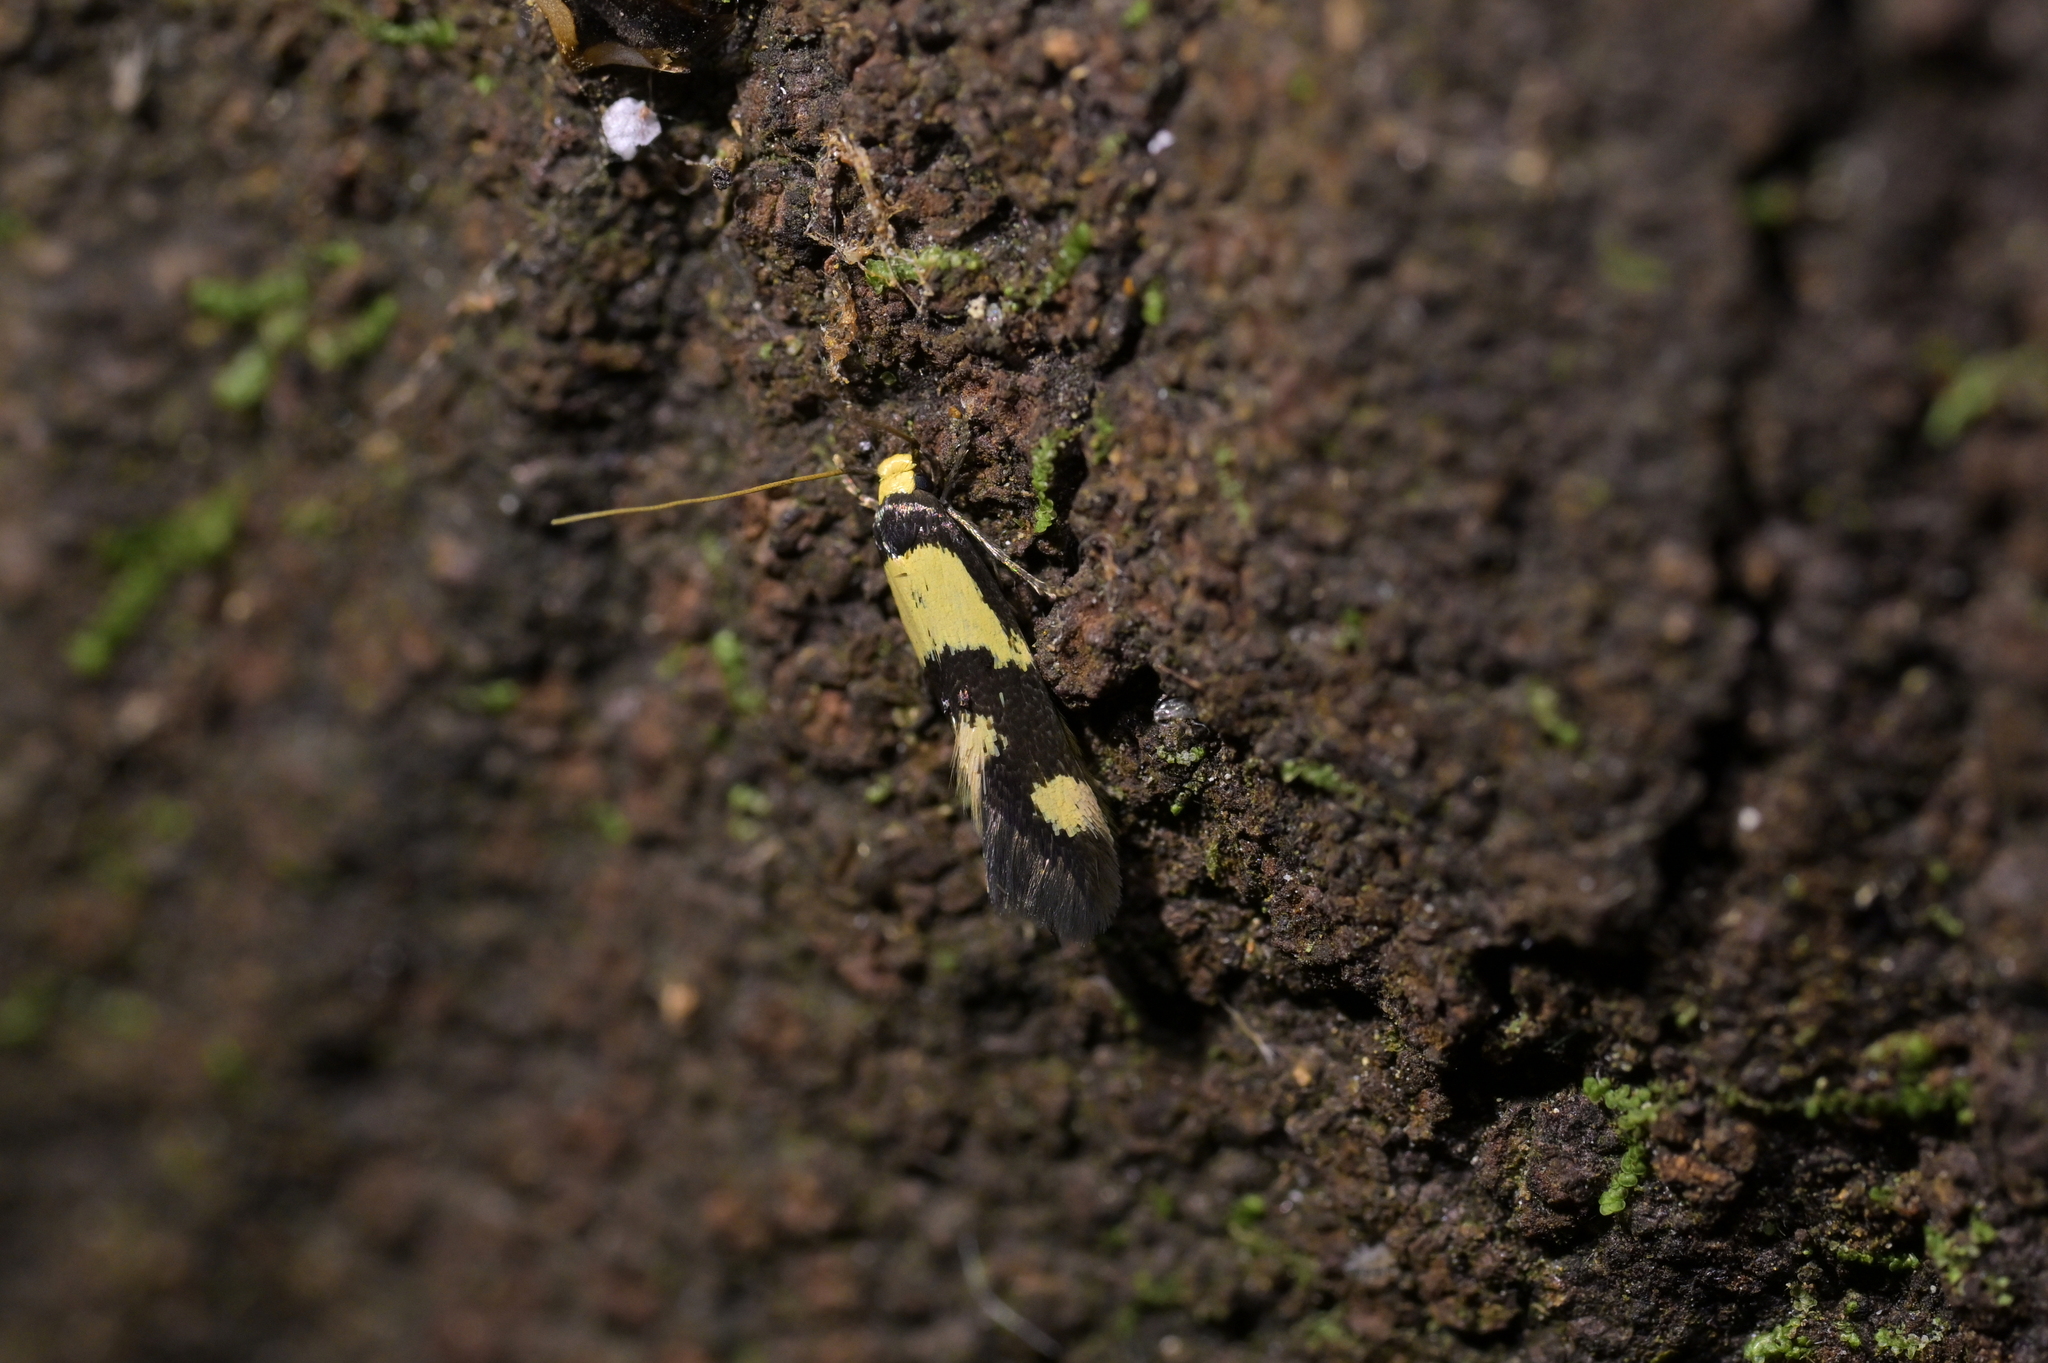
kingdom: Animalia
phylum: Arthropoda
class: Insecta
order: Lepidoptera
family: Tineidae
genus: Opogona
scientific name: Opogona comptella
